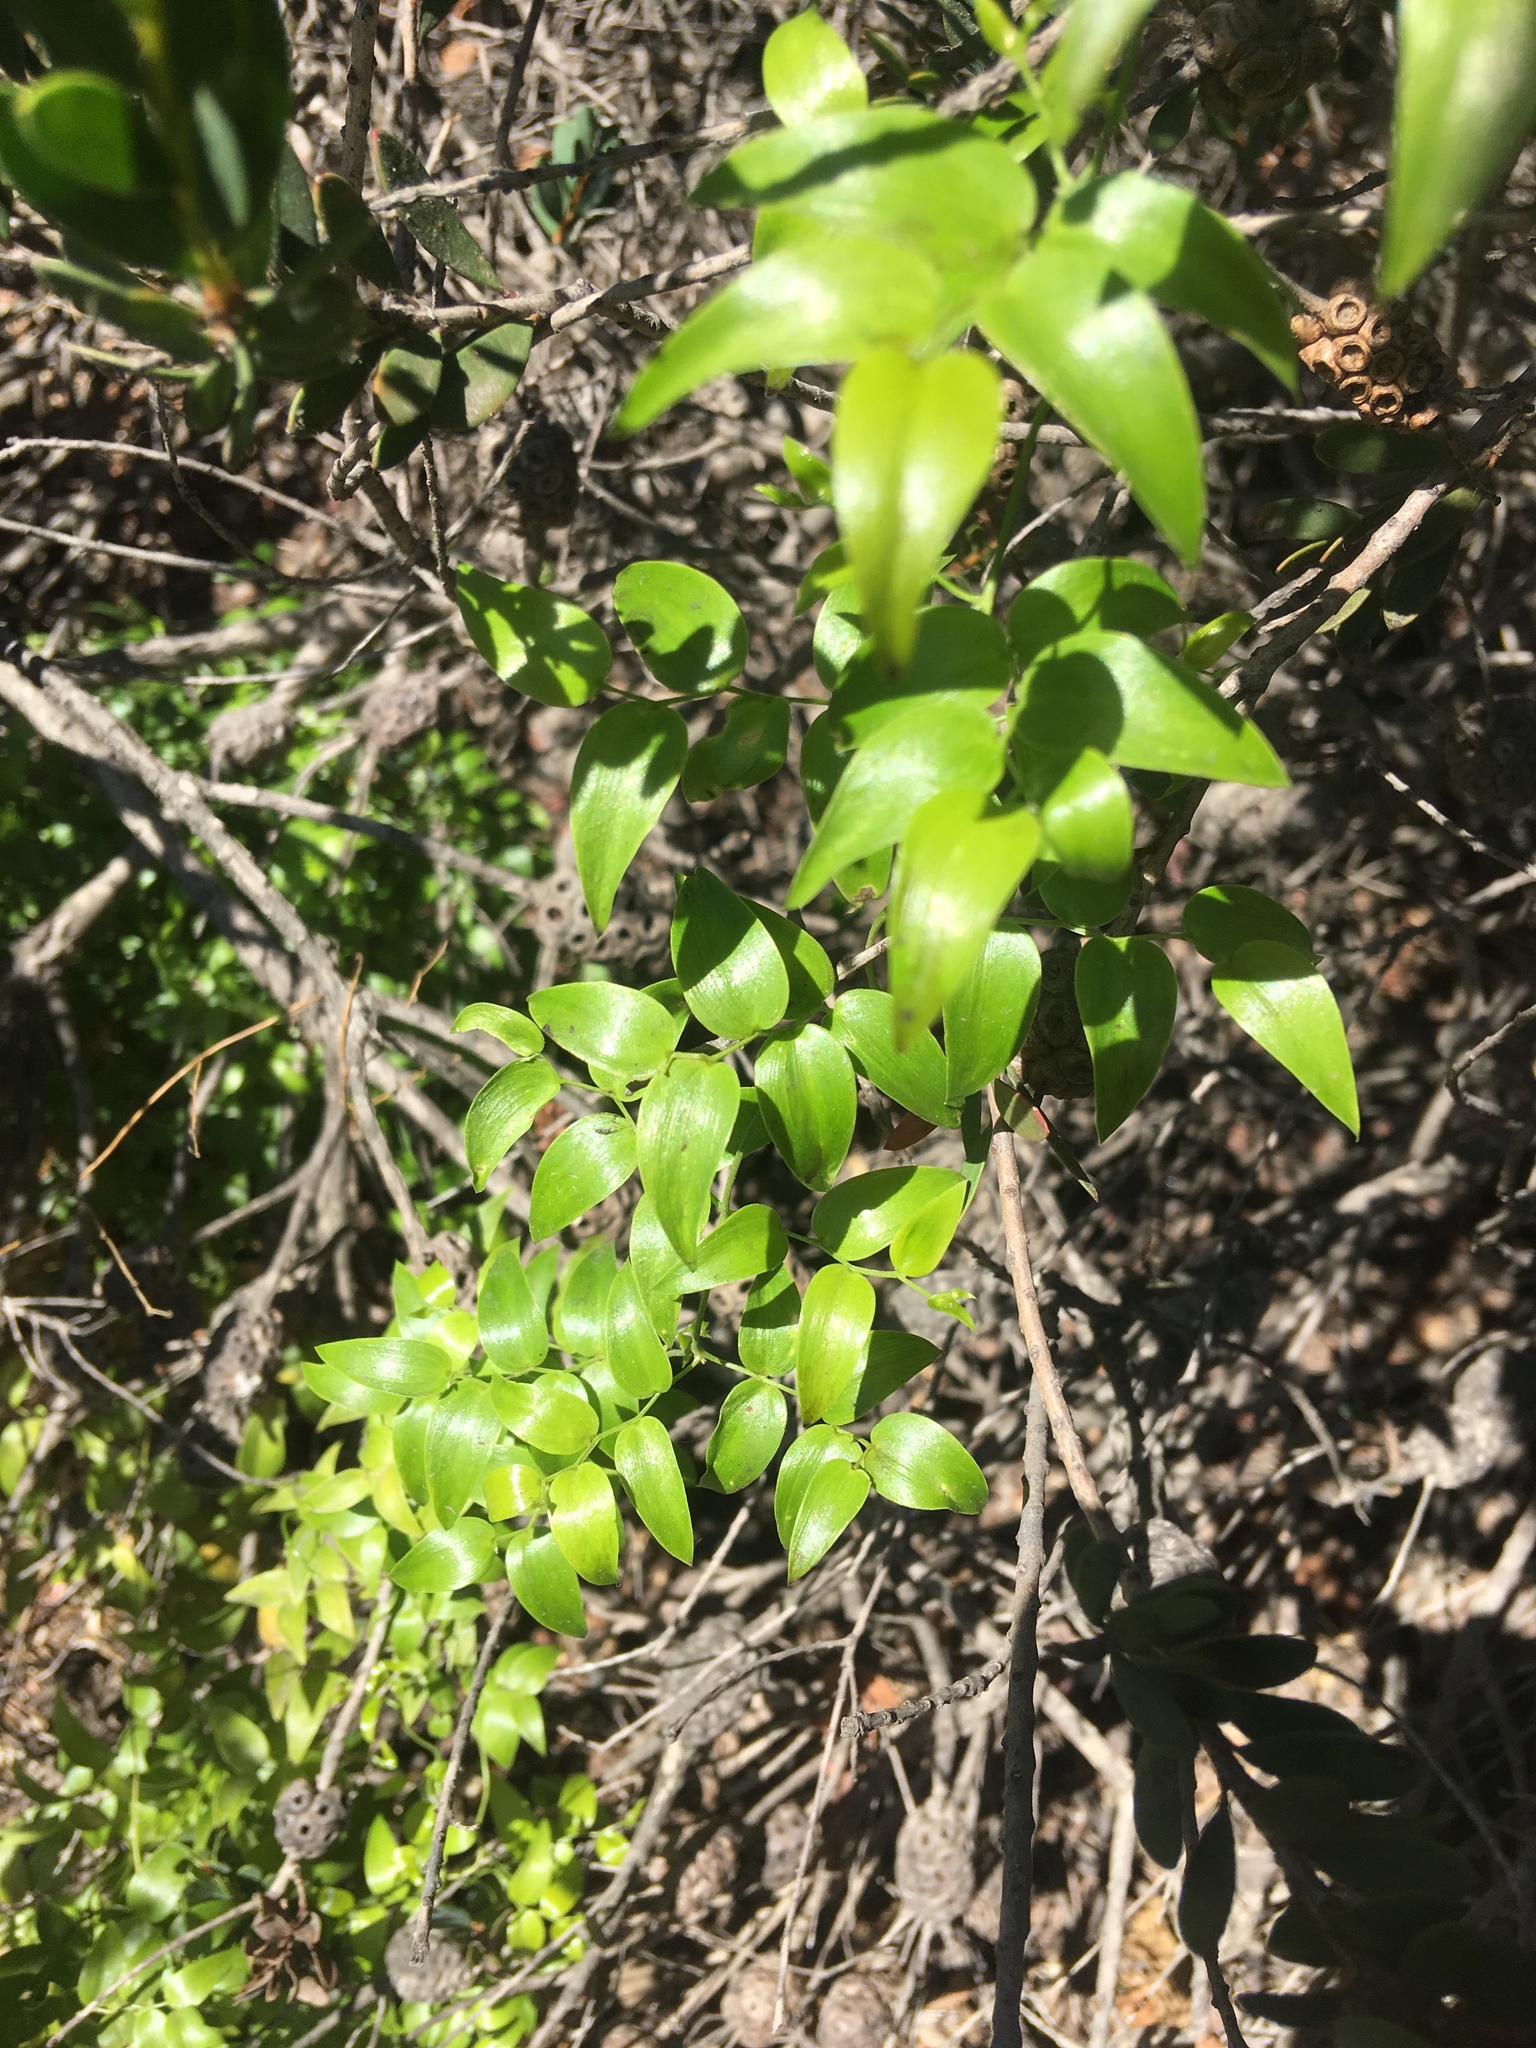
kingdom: Plantae
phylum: Tracheophyta
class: Liliopsida
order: Asparagales
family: Asparagaceae
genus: Asparagus
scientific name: Asparagus asparagoides
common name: African asparagus fern
